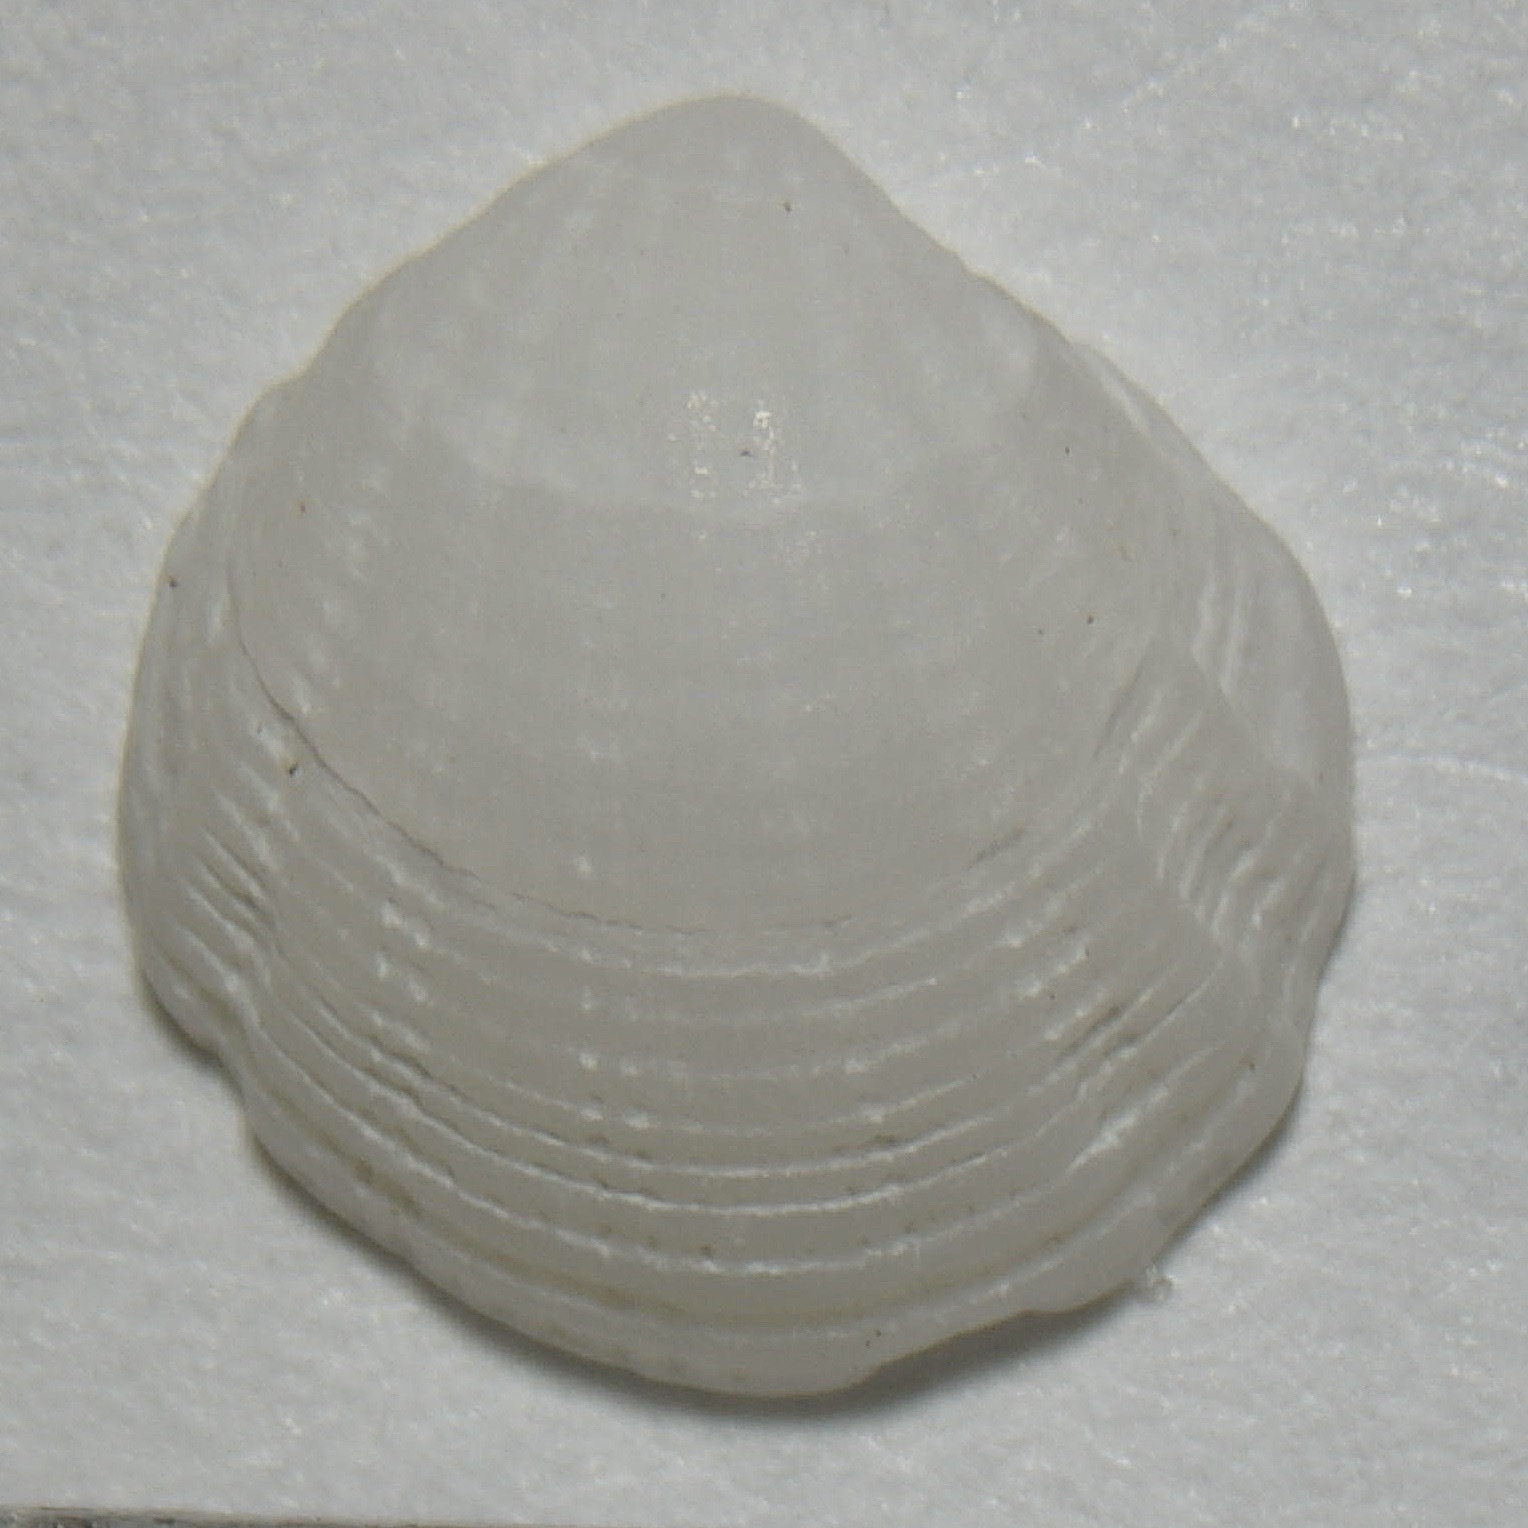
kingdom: Animalia
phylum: Mollusca
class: Bivalvia
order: Lucinida
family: Lucinidae
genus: Radiolucina
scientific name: Radiolucina amianta
